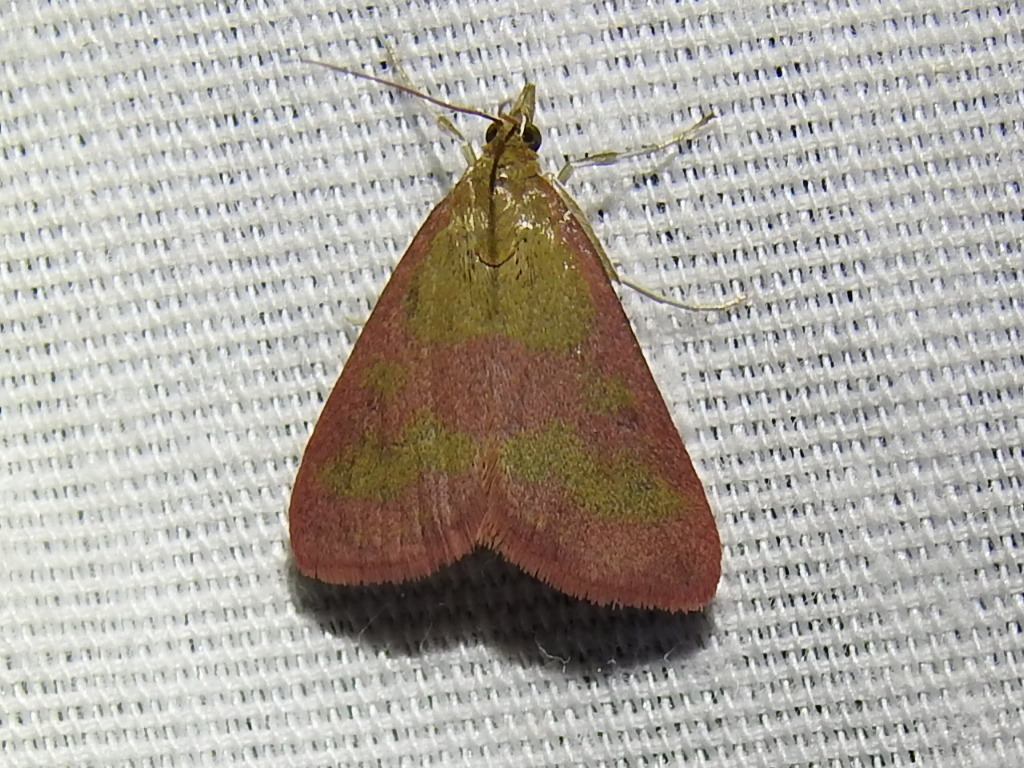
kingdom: Animalia
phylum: Arthropoda
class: Insecta
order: Lepidoptera
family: Crambidae
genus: Pyrausta
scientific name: Pyrausta laticlavia
